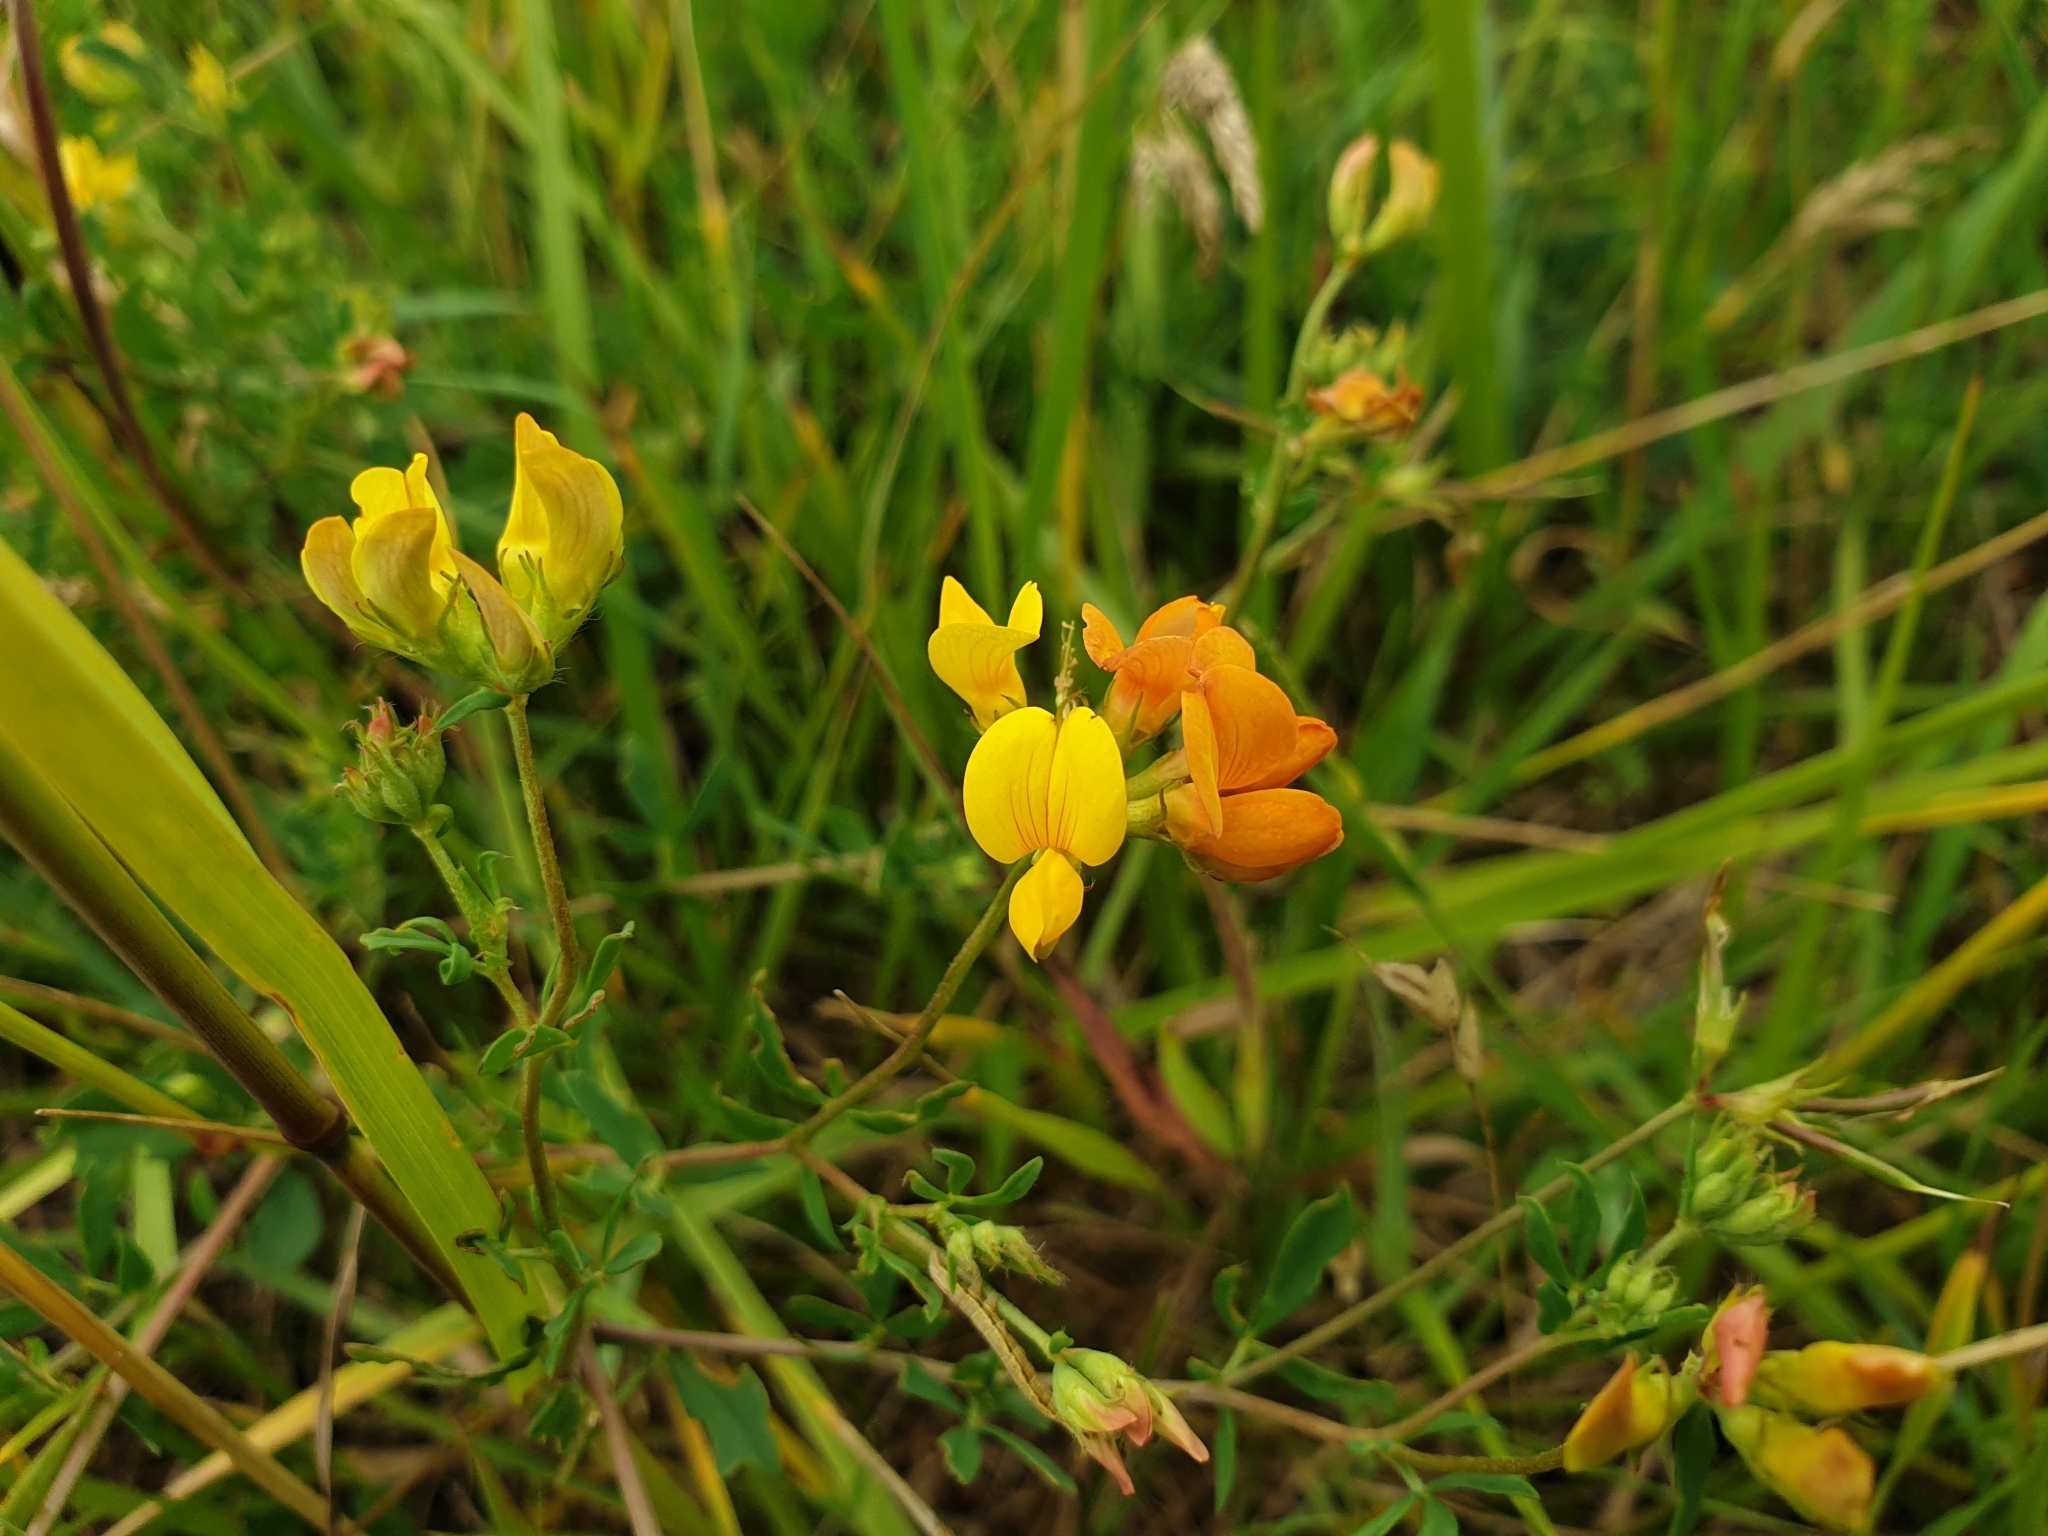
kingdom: Plantae
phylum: Tracheophyta
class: Magnoliopsida
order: Fabales
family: Fabaceae
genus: Lotus
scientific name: Lotus corniculatus
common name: Common bird's-foot-trefoil
